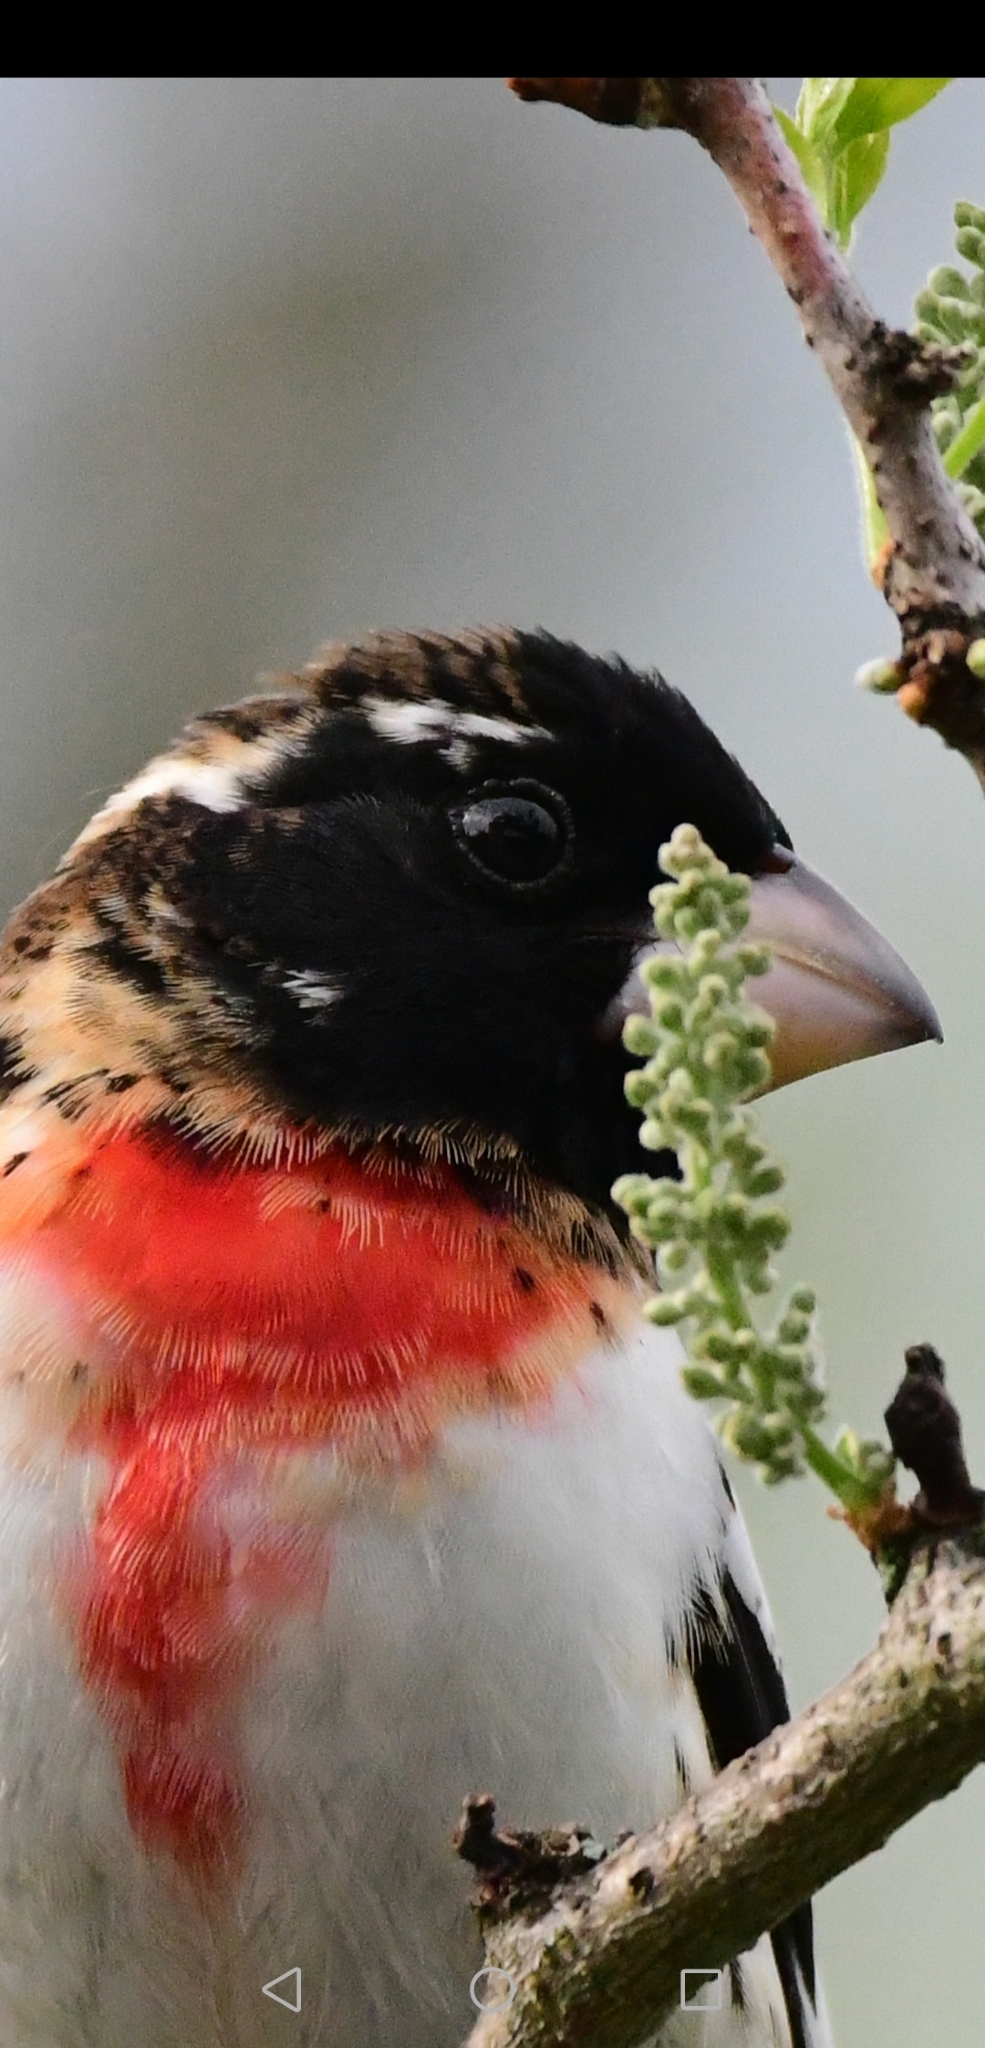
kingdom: Animalia
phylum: Chordata
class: Aves
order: Passeriformes
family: Cardinalidae
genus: Pheucticus
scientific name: Pheucticus ludovicianus
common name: Rose-breasted grosbeak
